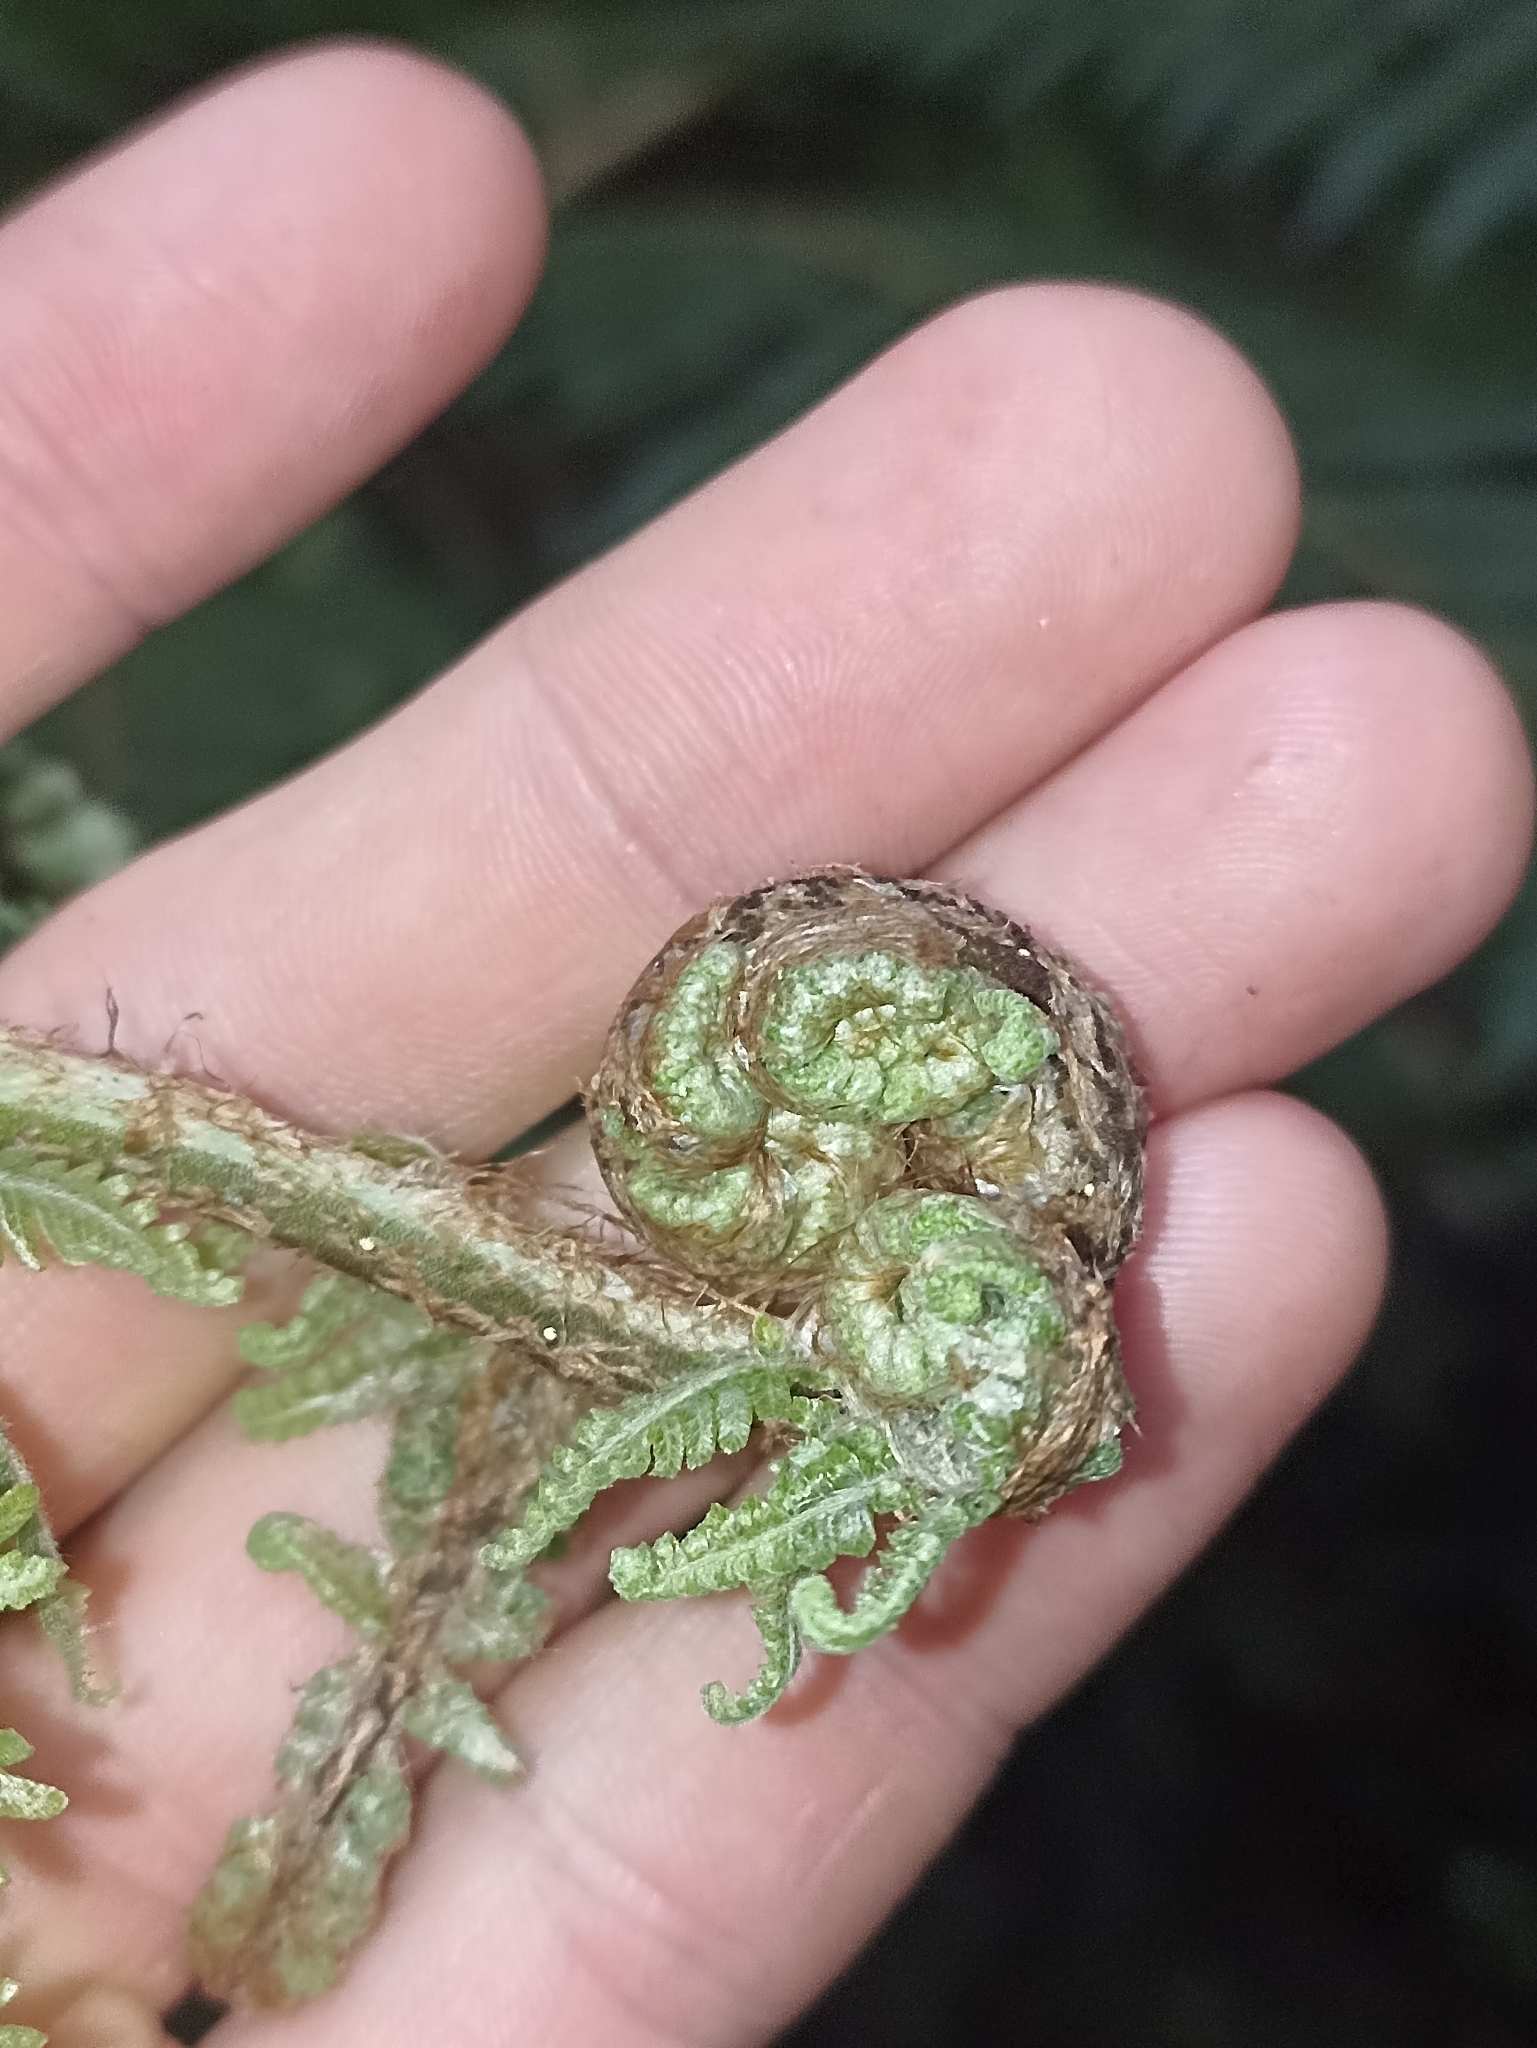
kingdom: Plantae
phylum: Tracheophyta
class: Polypodiopsida
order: Cyatheales
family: Cyatheaceae
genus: Cyathea
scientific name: Cyathea cunninghamii
